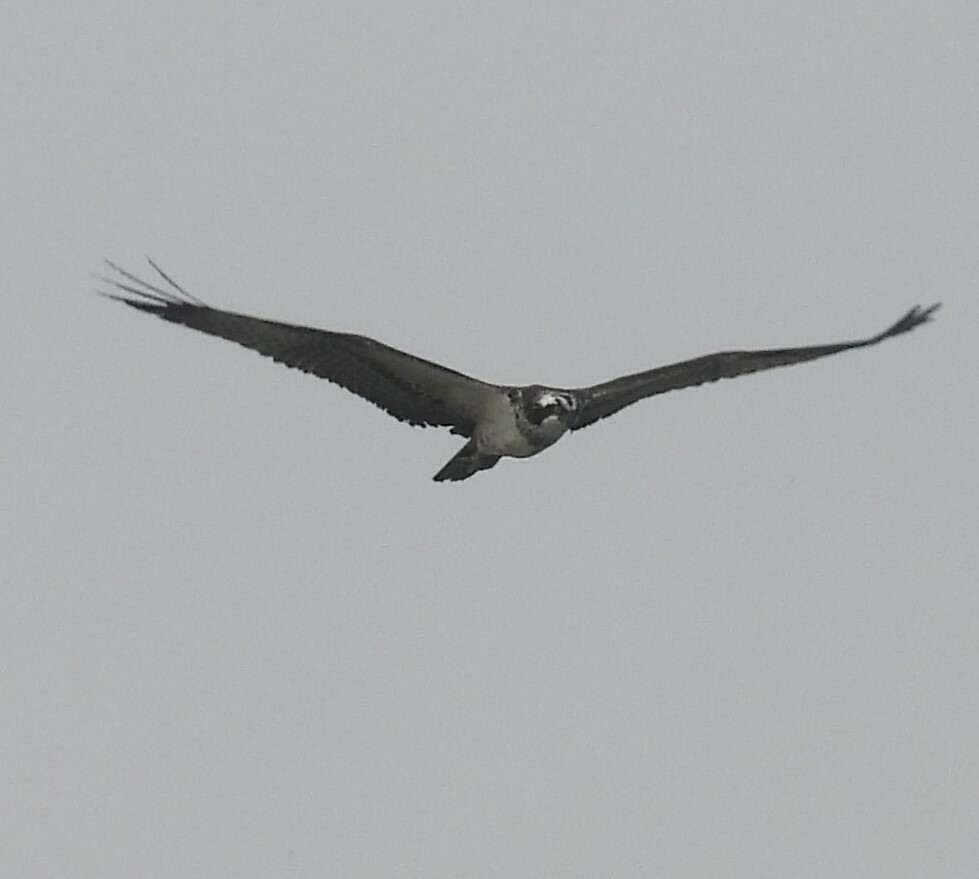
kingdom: Animalia
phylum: Chordata
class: Aves
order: Accipitriformes
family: Pandionidae
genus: Pandion
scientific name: Pandion haliaetus
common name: Osprey
